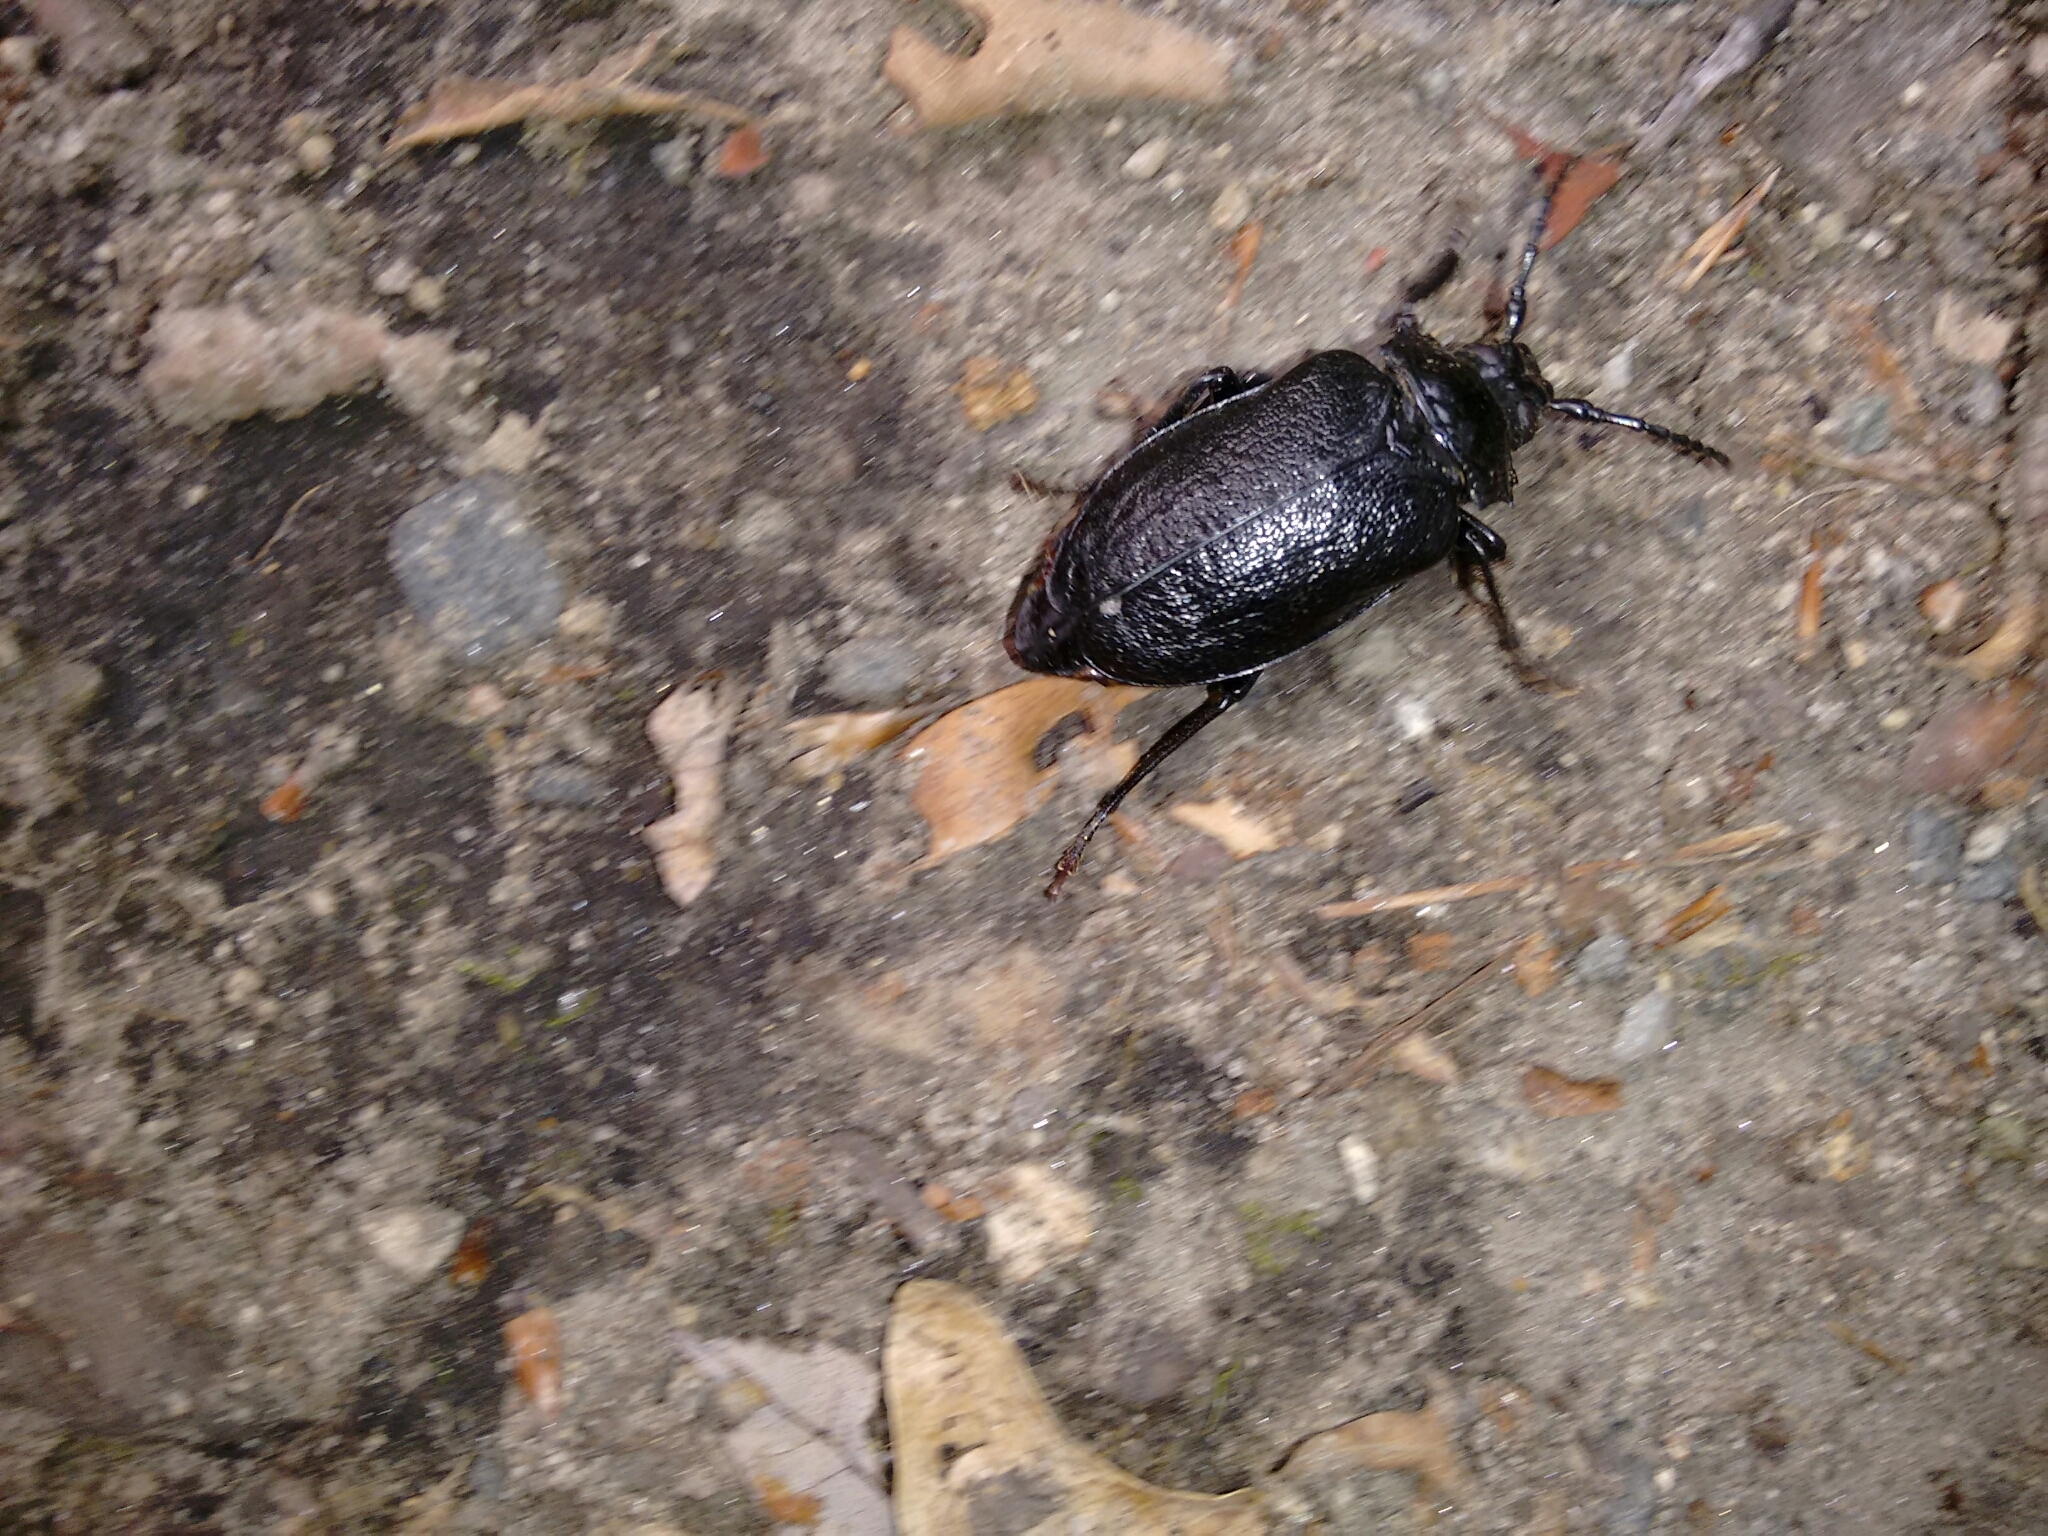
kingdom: Animalia
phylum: Arthropoda
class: Insecta
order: Coleoptera
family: Cerambycidae
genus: Prionus
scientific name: Prionus laticollis
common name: Broad necked prionus
